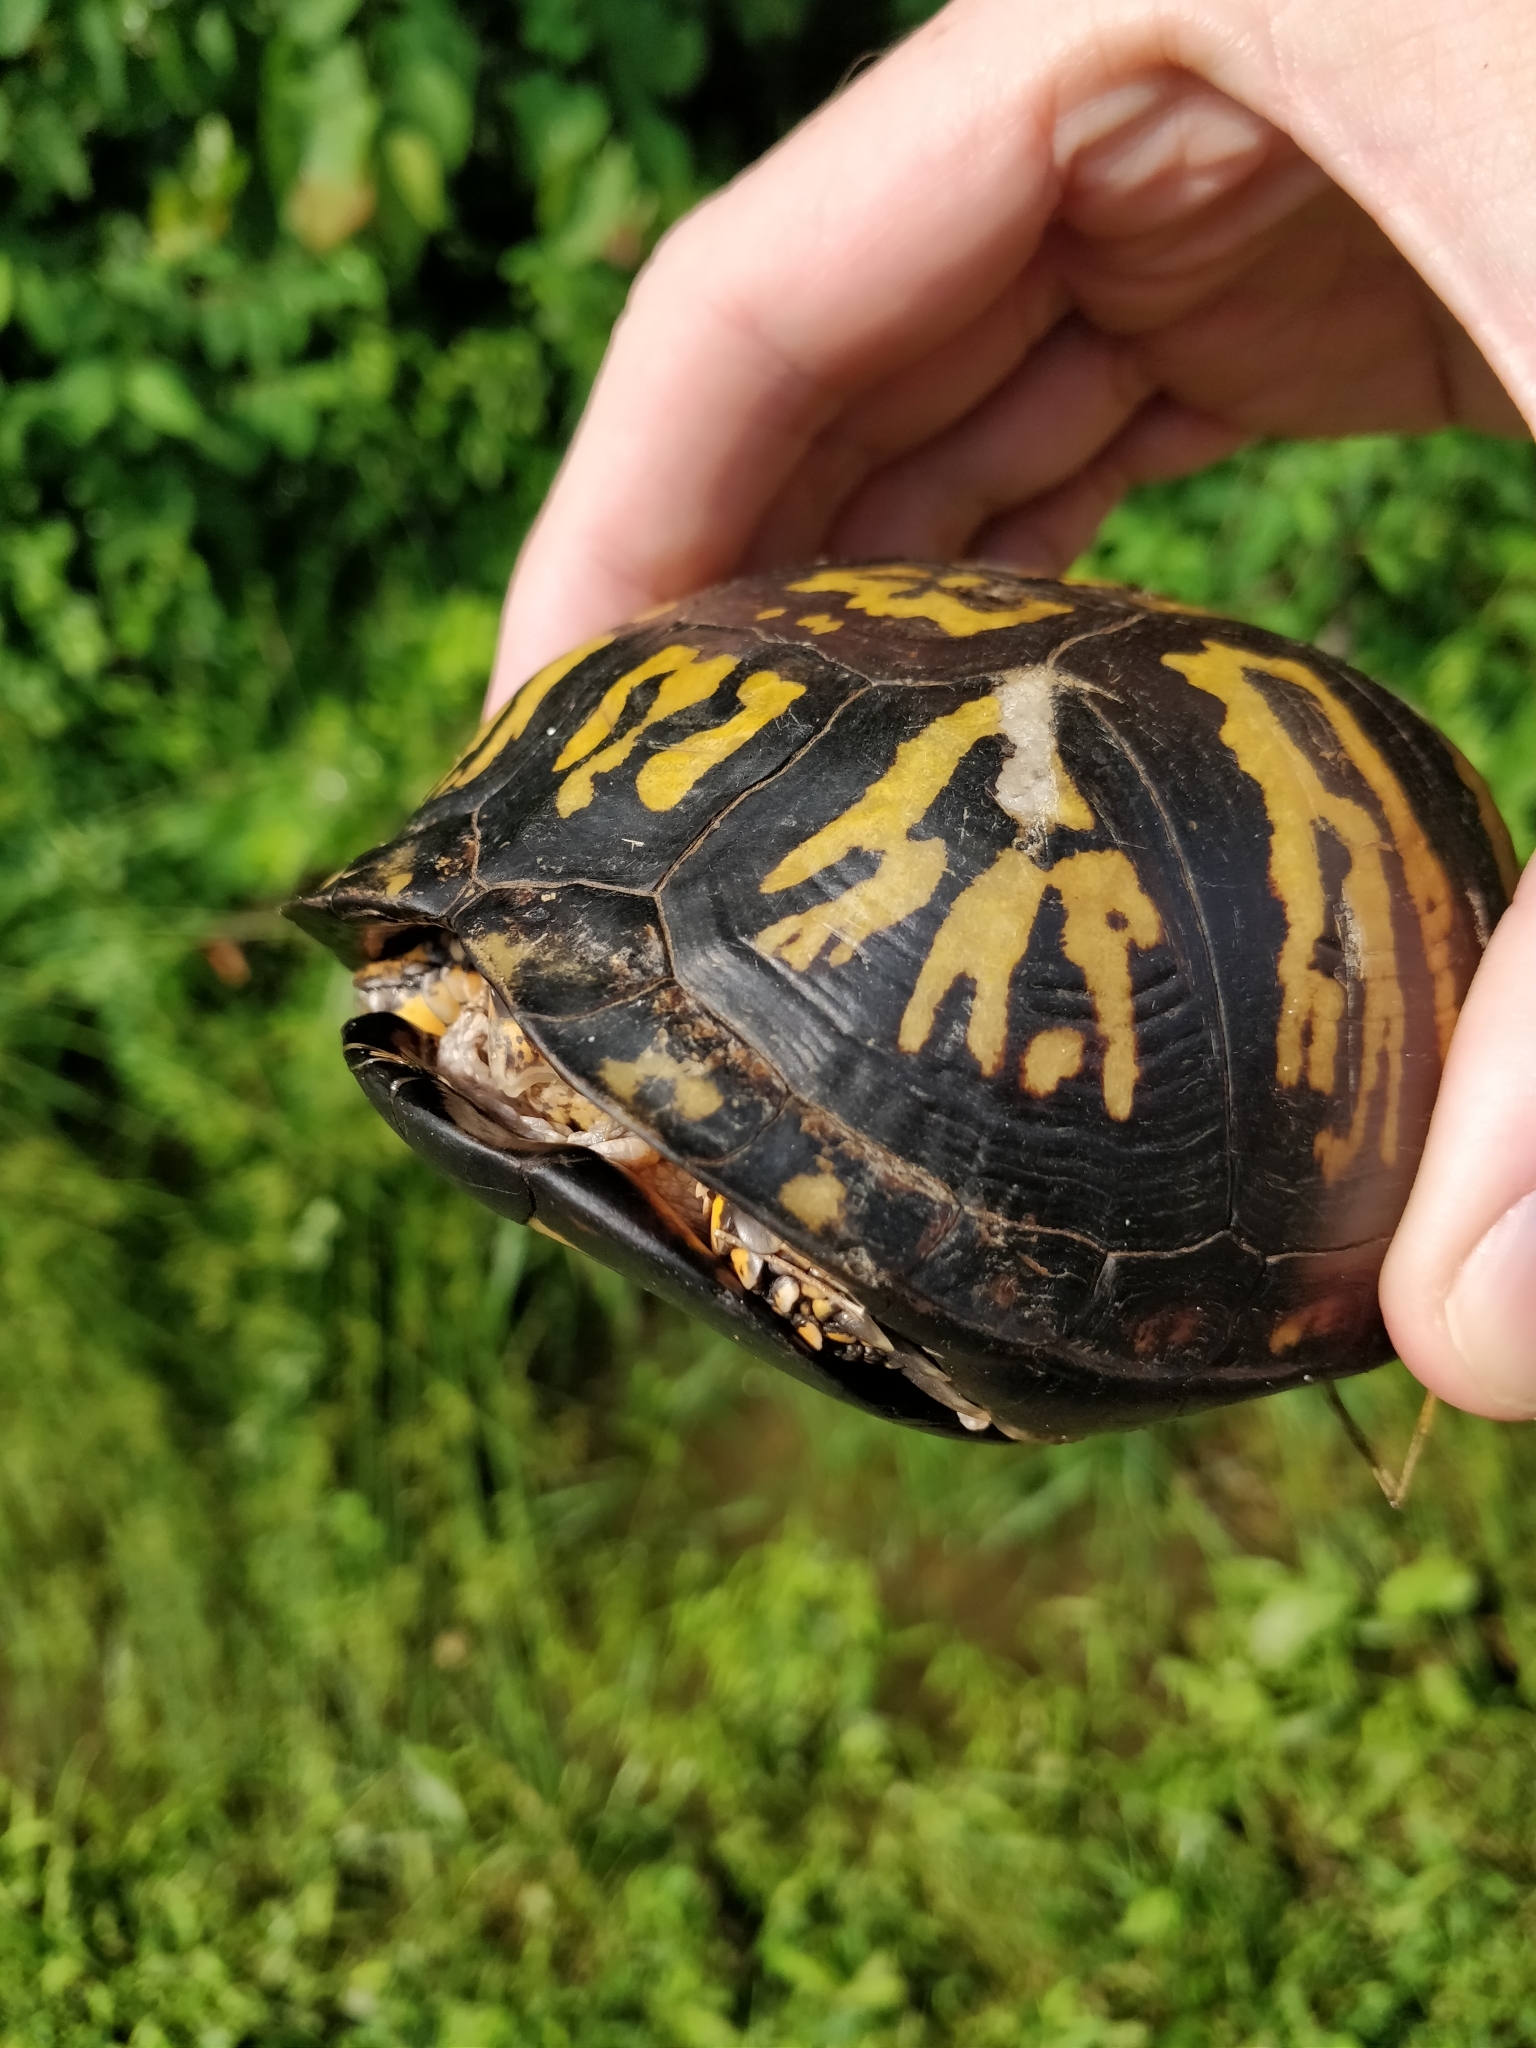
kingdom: Animalia
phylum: Chordata
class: Testudines
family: Emydidae
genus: Terrapene
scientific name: Terrapene carolina
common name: Common box turtle
